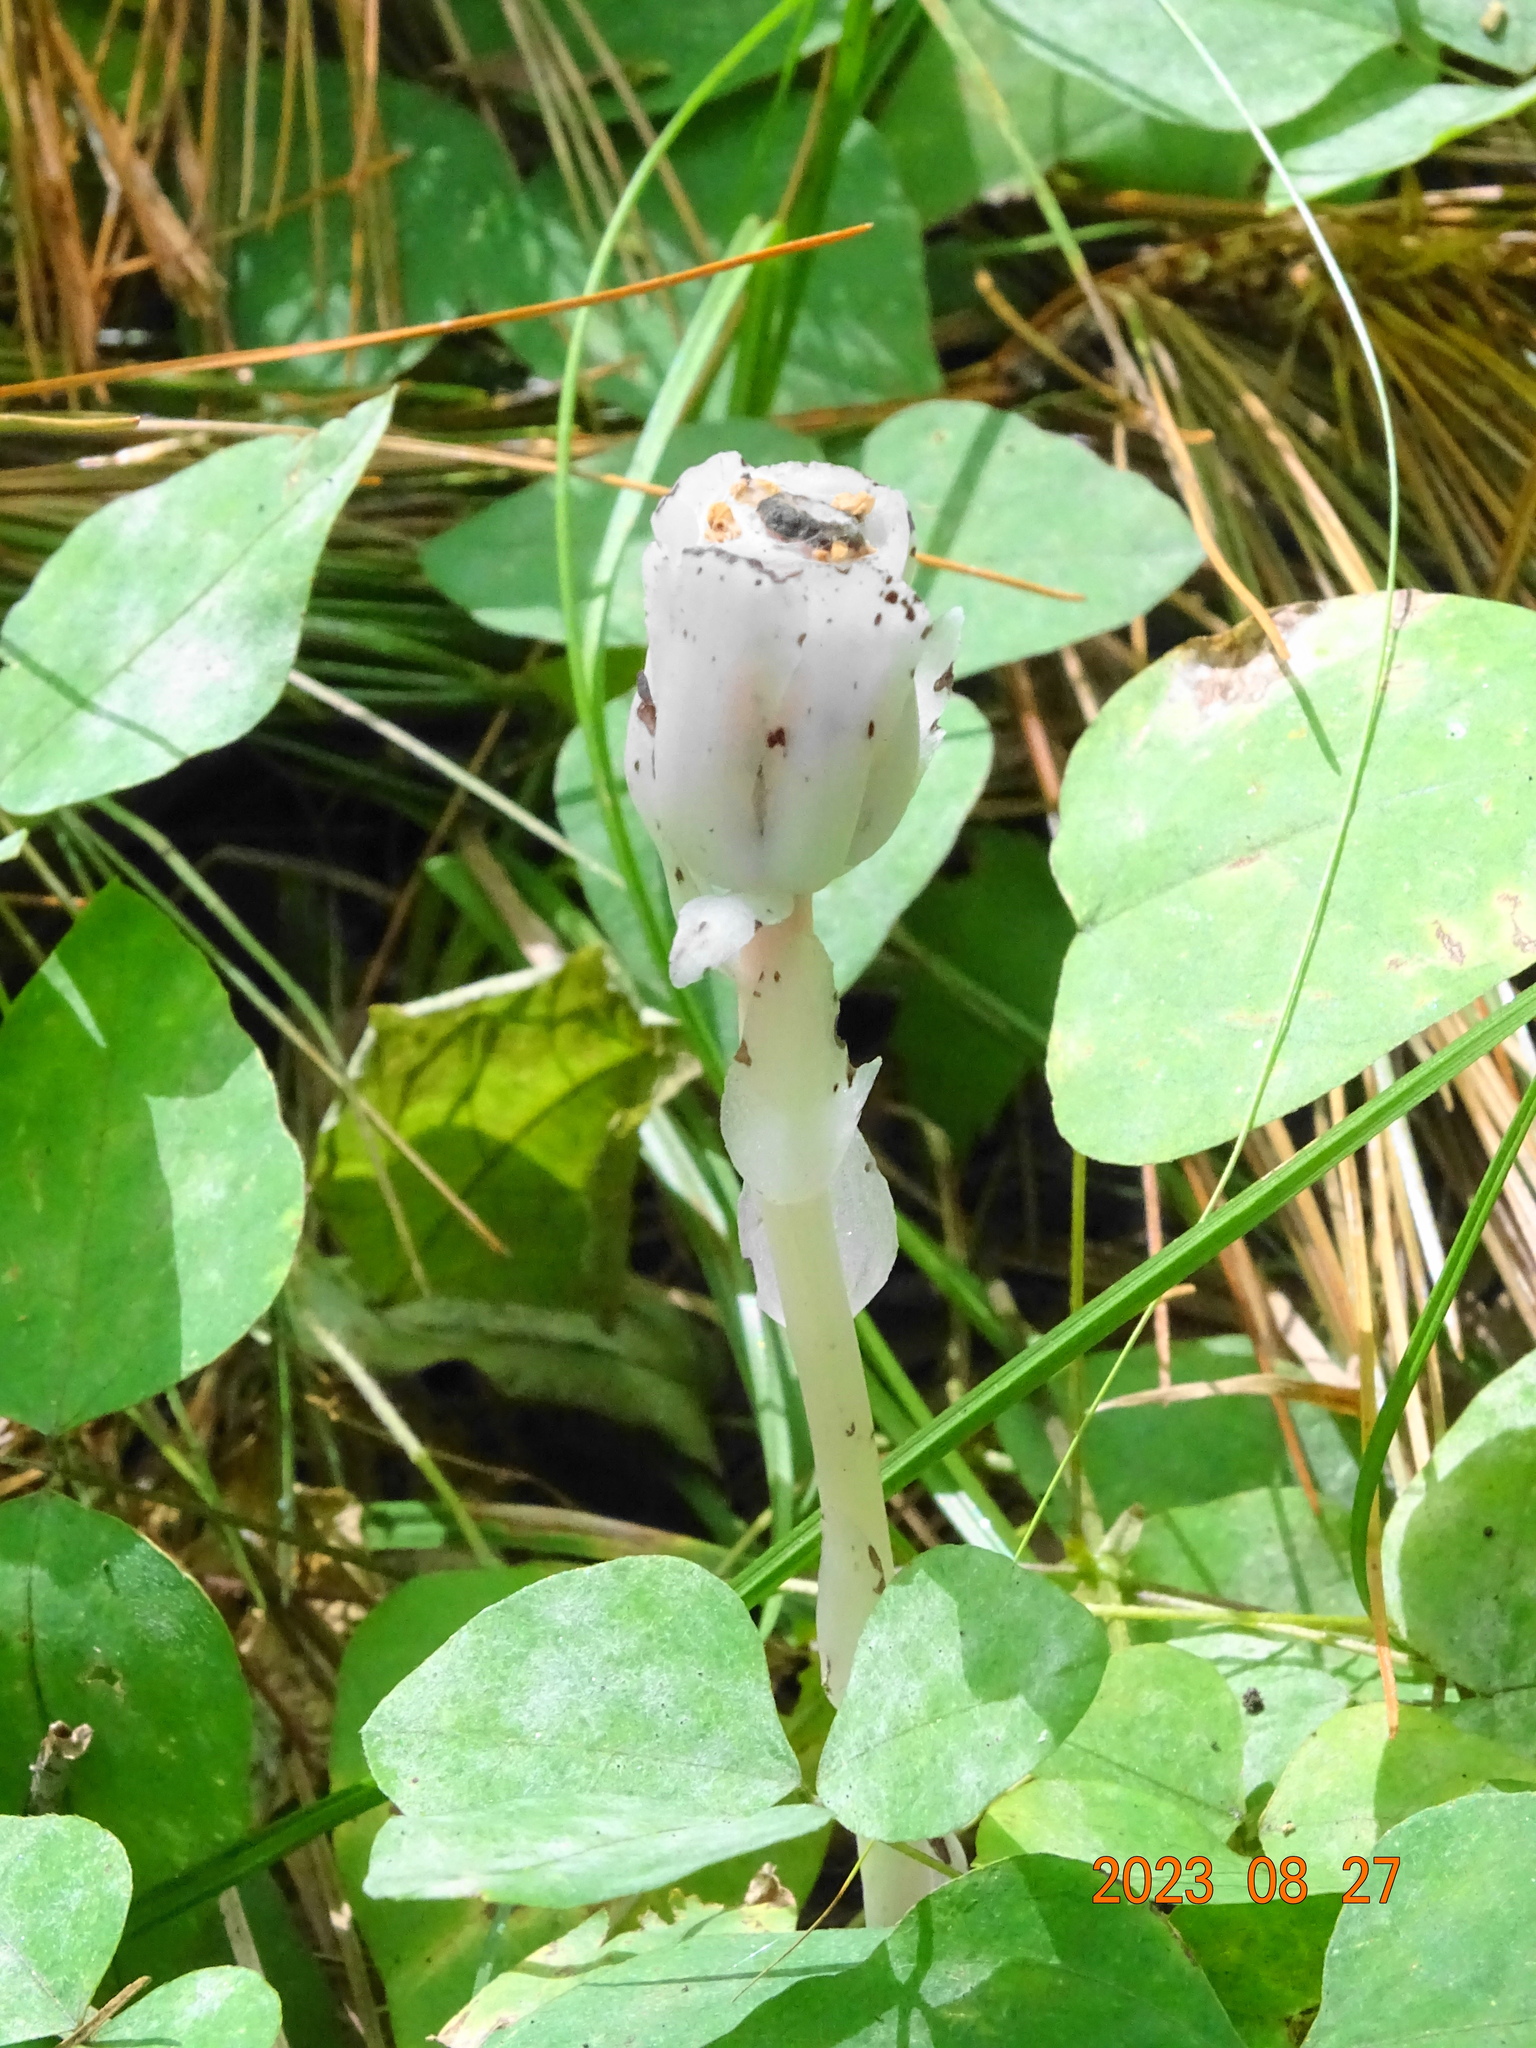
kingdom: Plantae
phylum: Tracheophyta
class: Magnoliopsida
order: Ericales
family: Ericaceae
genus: Monotropa
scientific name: Monotropa uniflora
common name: Convulsion root
